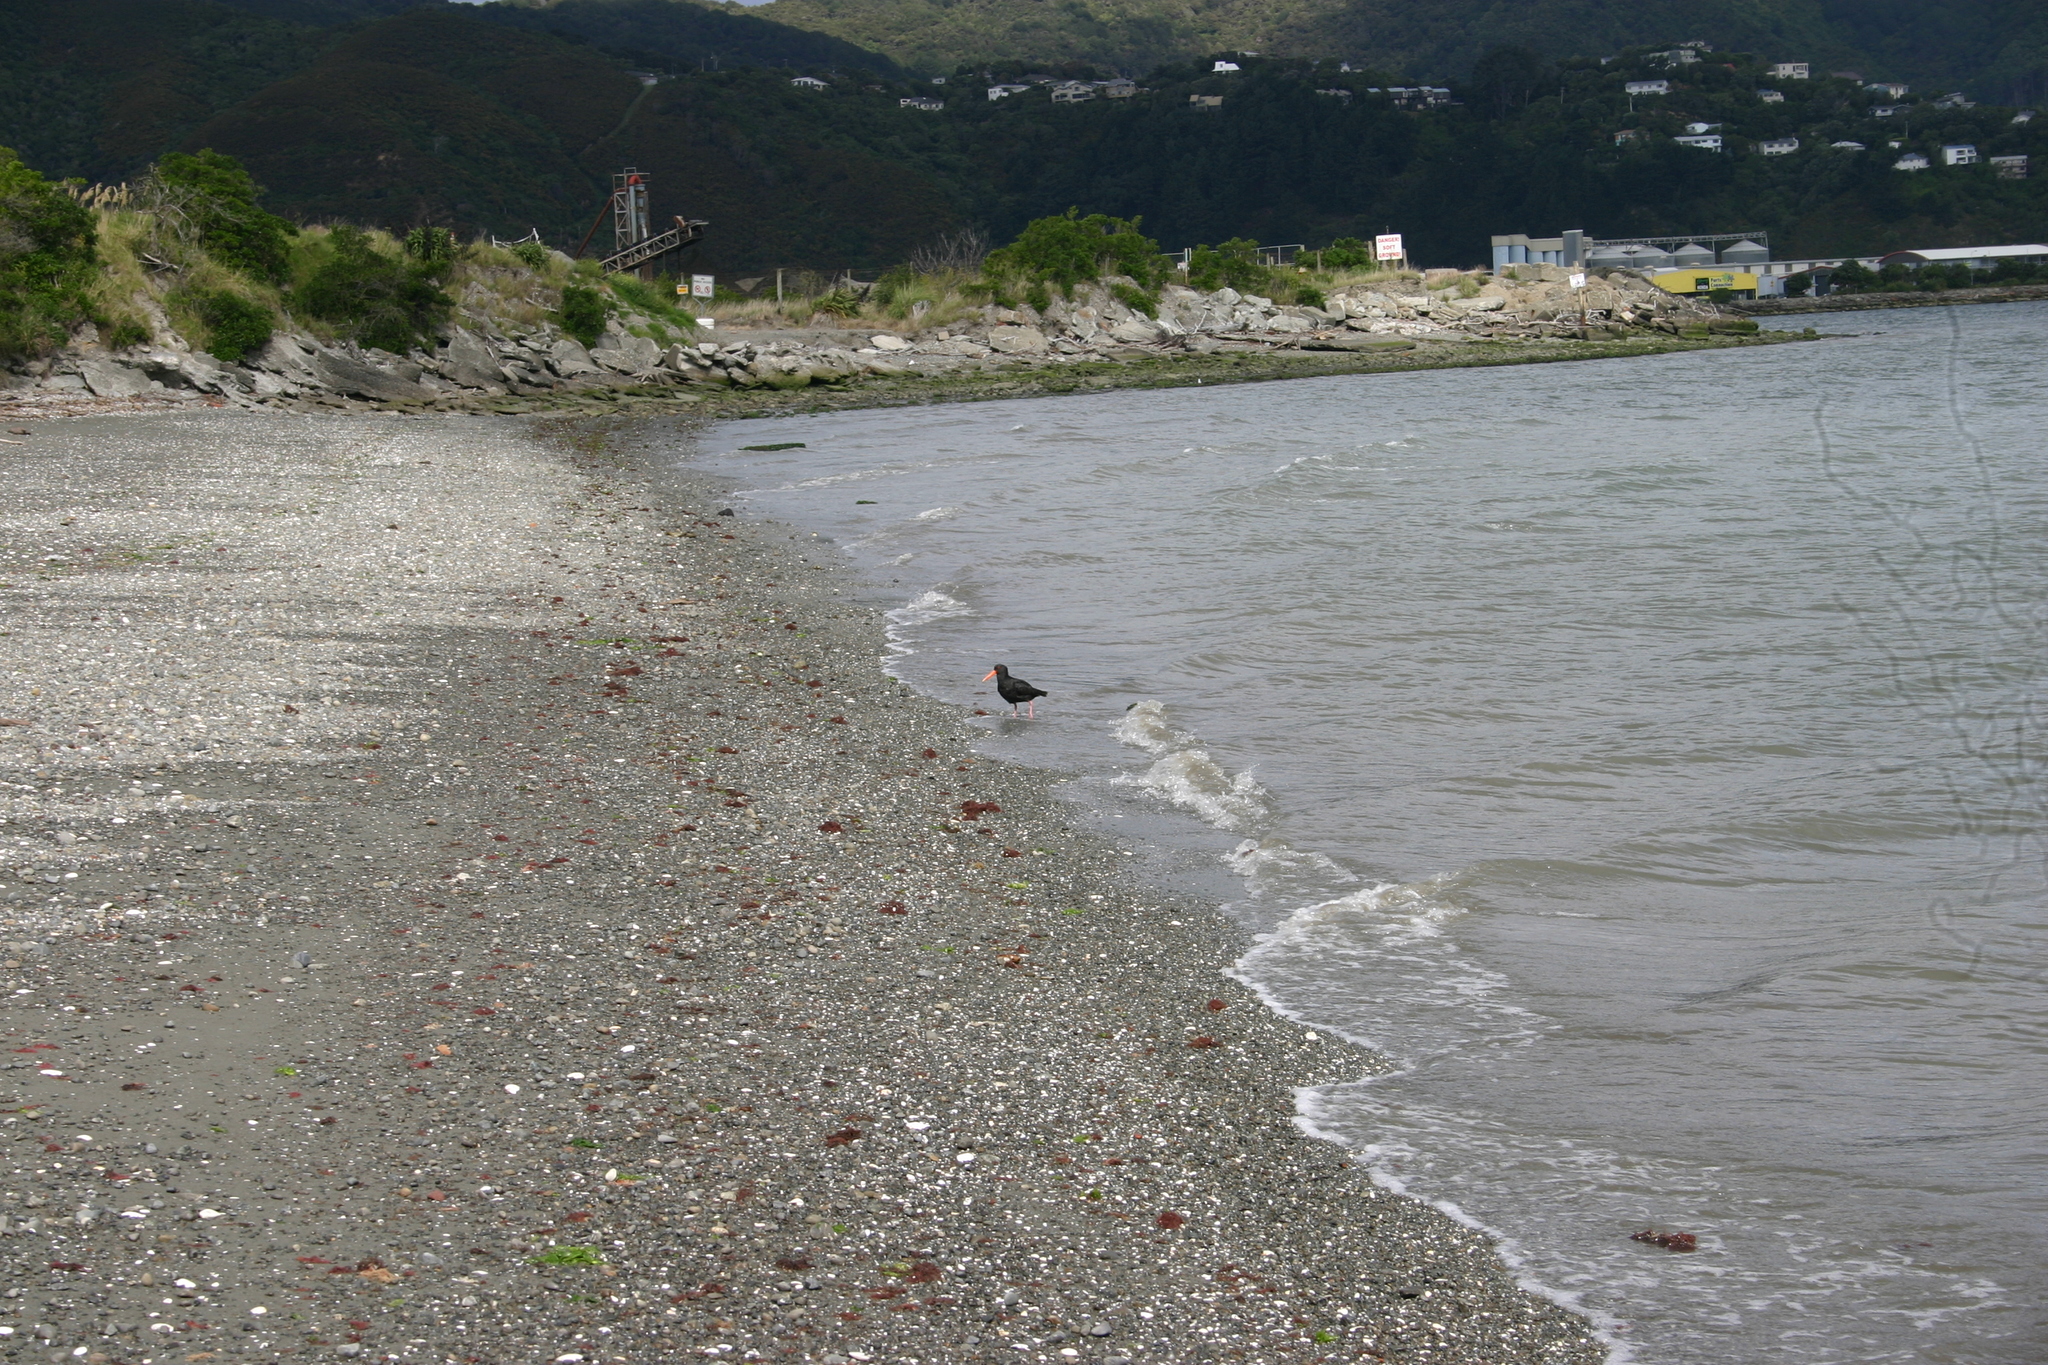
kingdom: Animalia
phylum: Chordata
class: Aves
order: Charadriiformes
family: Haematopodidae
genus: Haematopus
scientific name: Haematopus unicolor
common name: Variable oystercatcher
